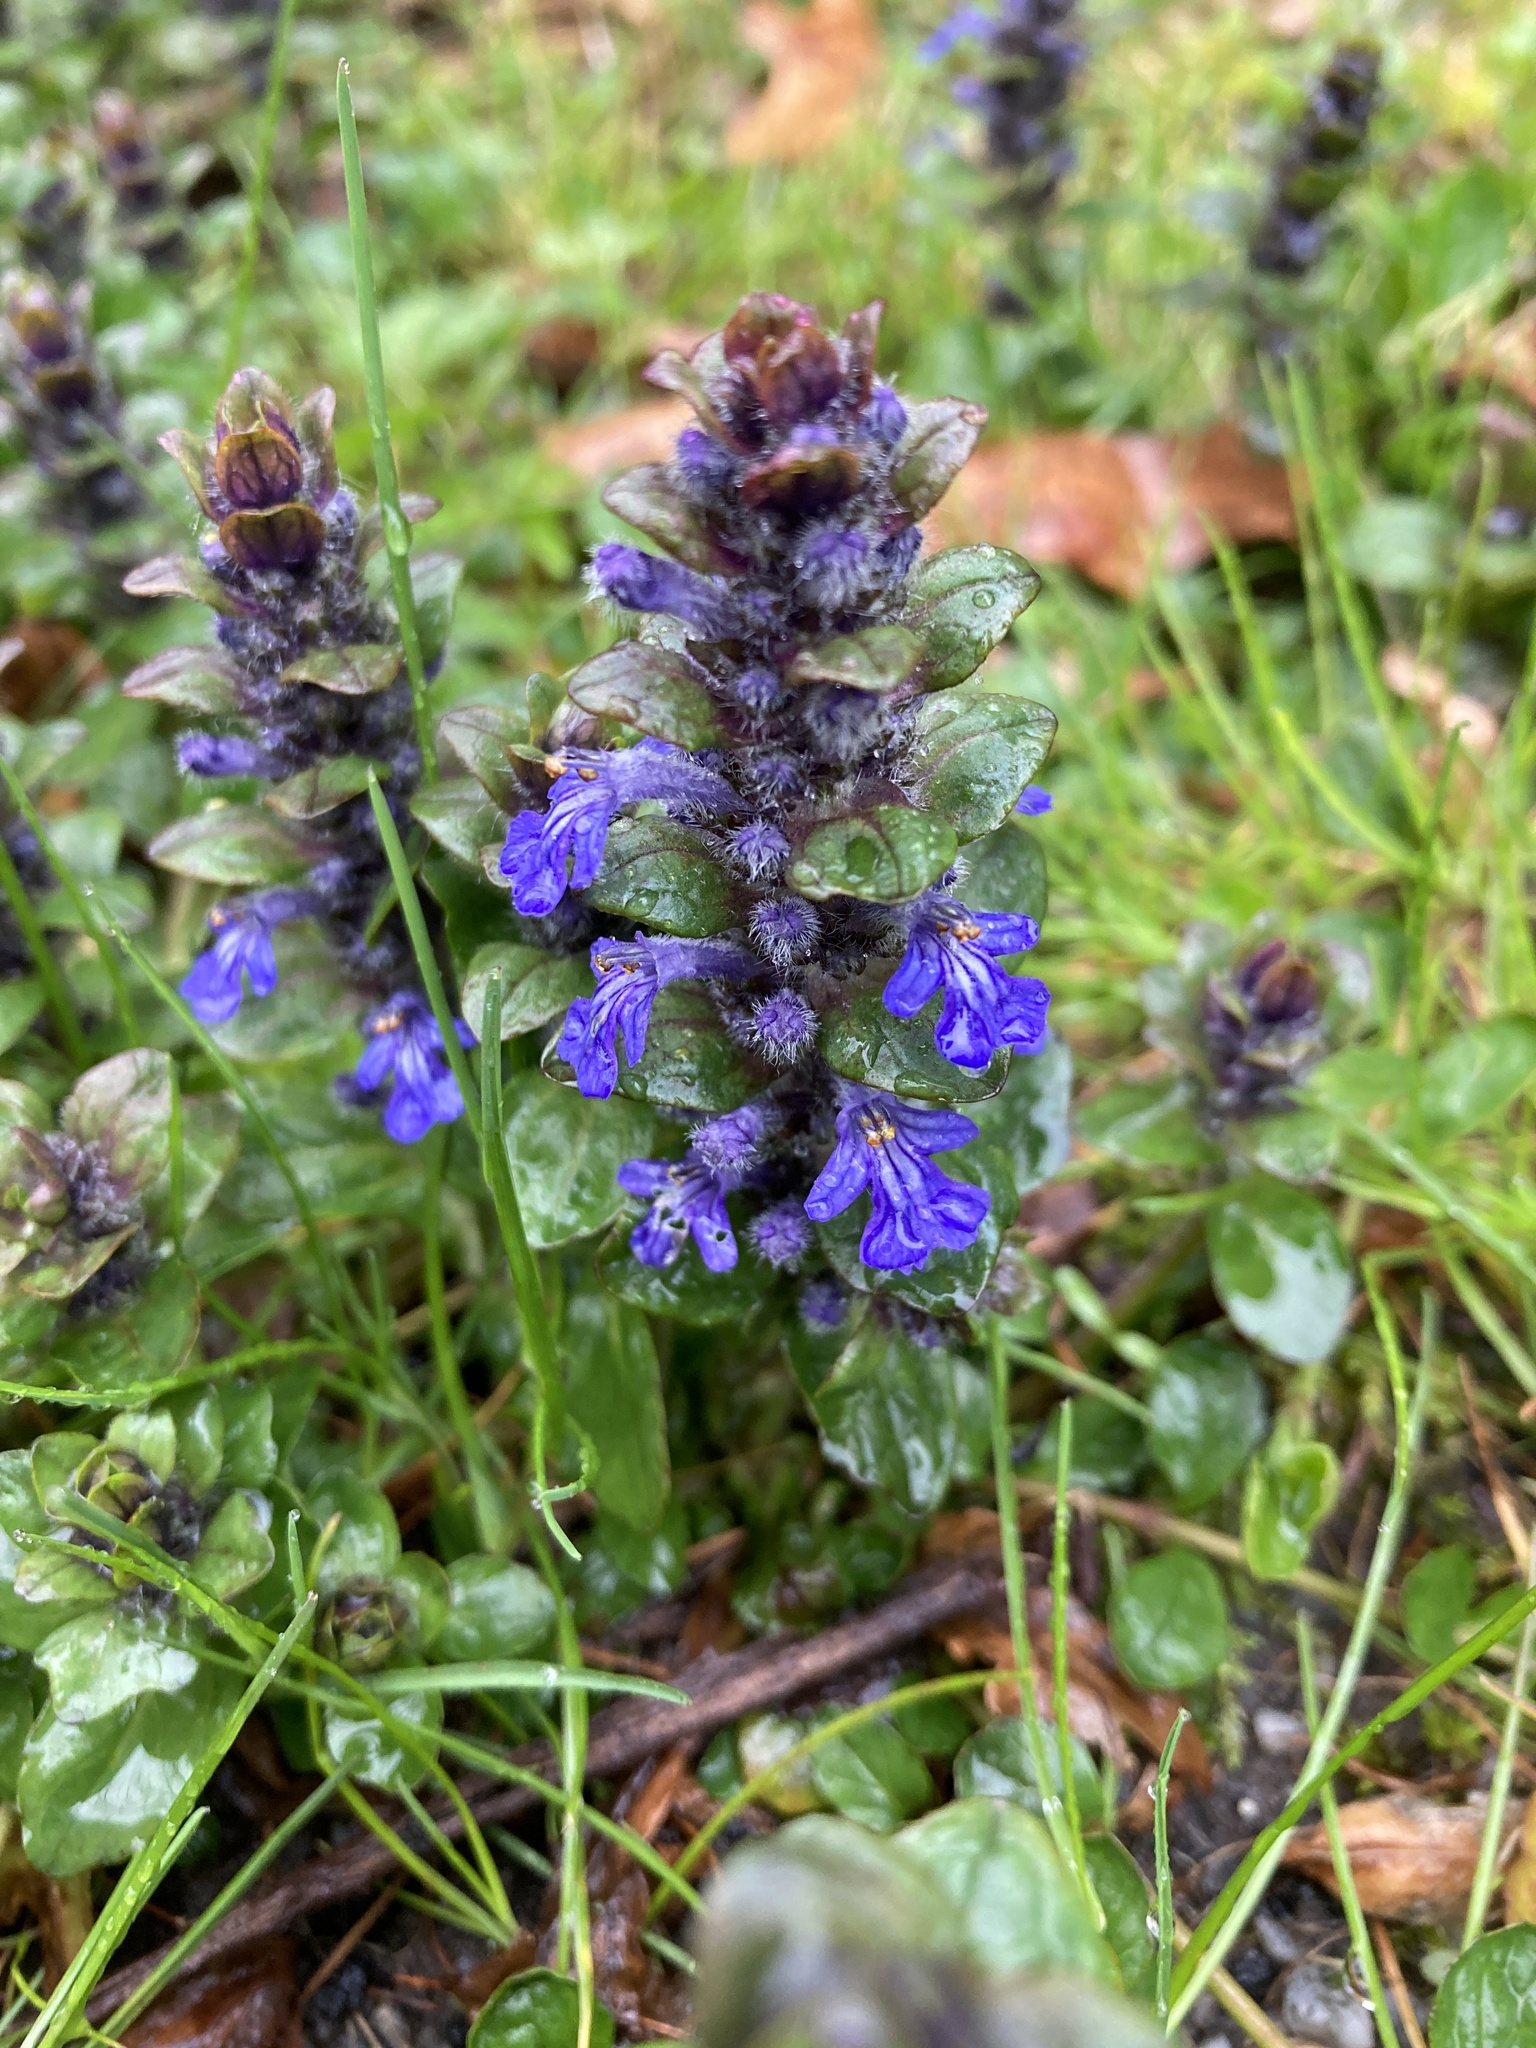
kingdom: Plantae
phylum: Tracheophyta
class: Magnoliopsida
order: Lamiales
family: Lamiaceae
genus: Ajuga
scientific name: Ajuga reptans
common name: Bugle
